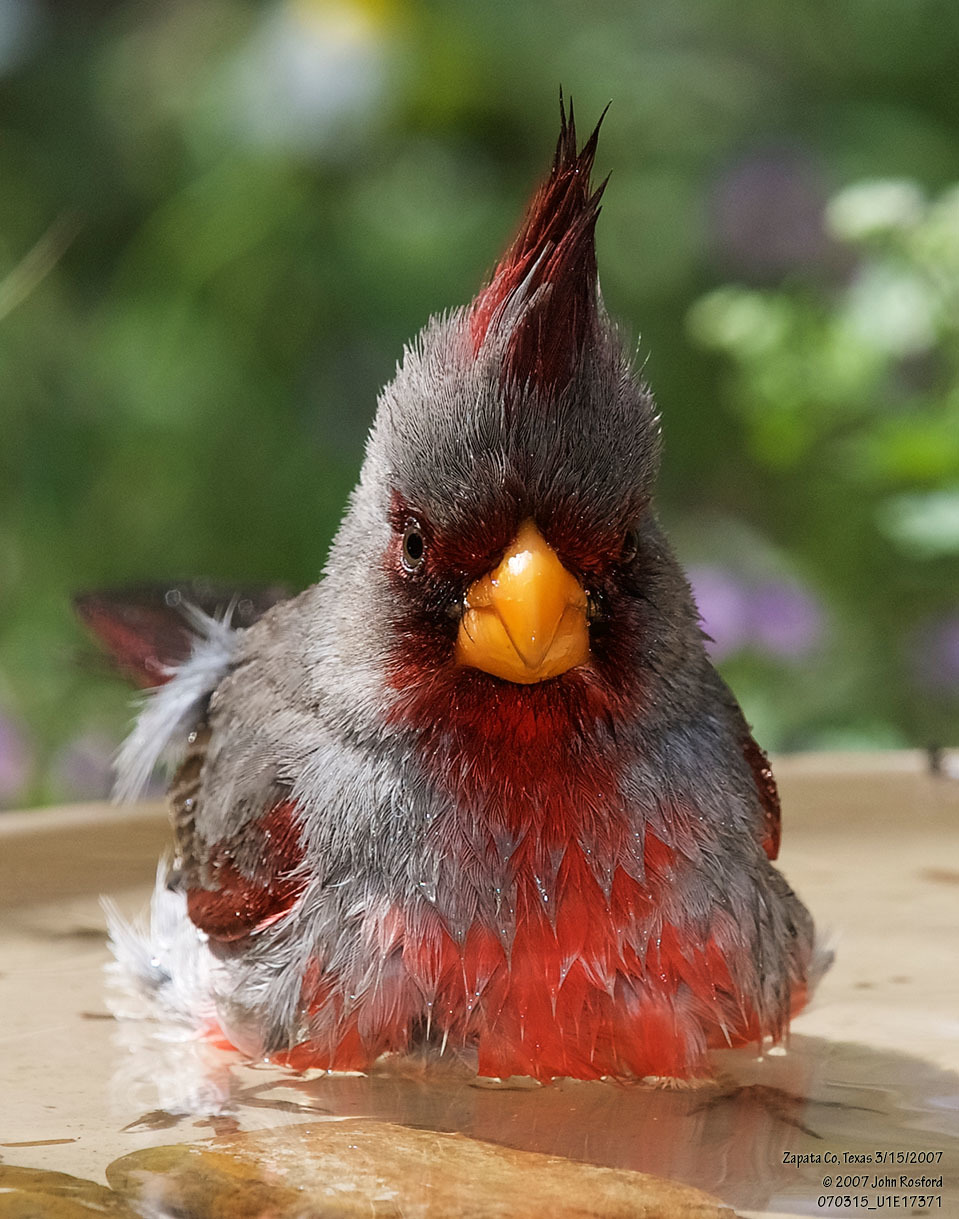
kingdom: Animalia
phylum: Chordata
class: Aves
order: Passeriformes
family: Cardinalidae
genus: Cardinalis
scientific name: Cardinalis sinuatus
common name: Pyrrhuloxia
